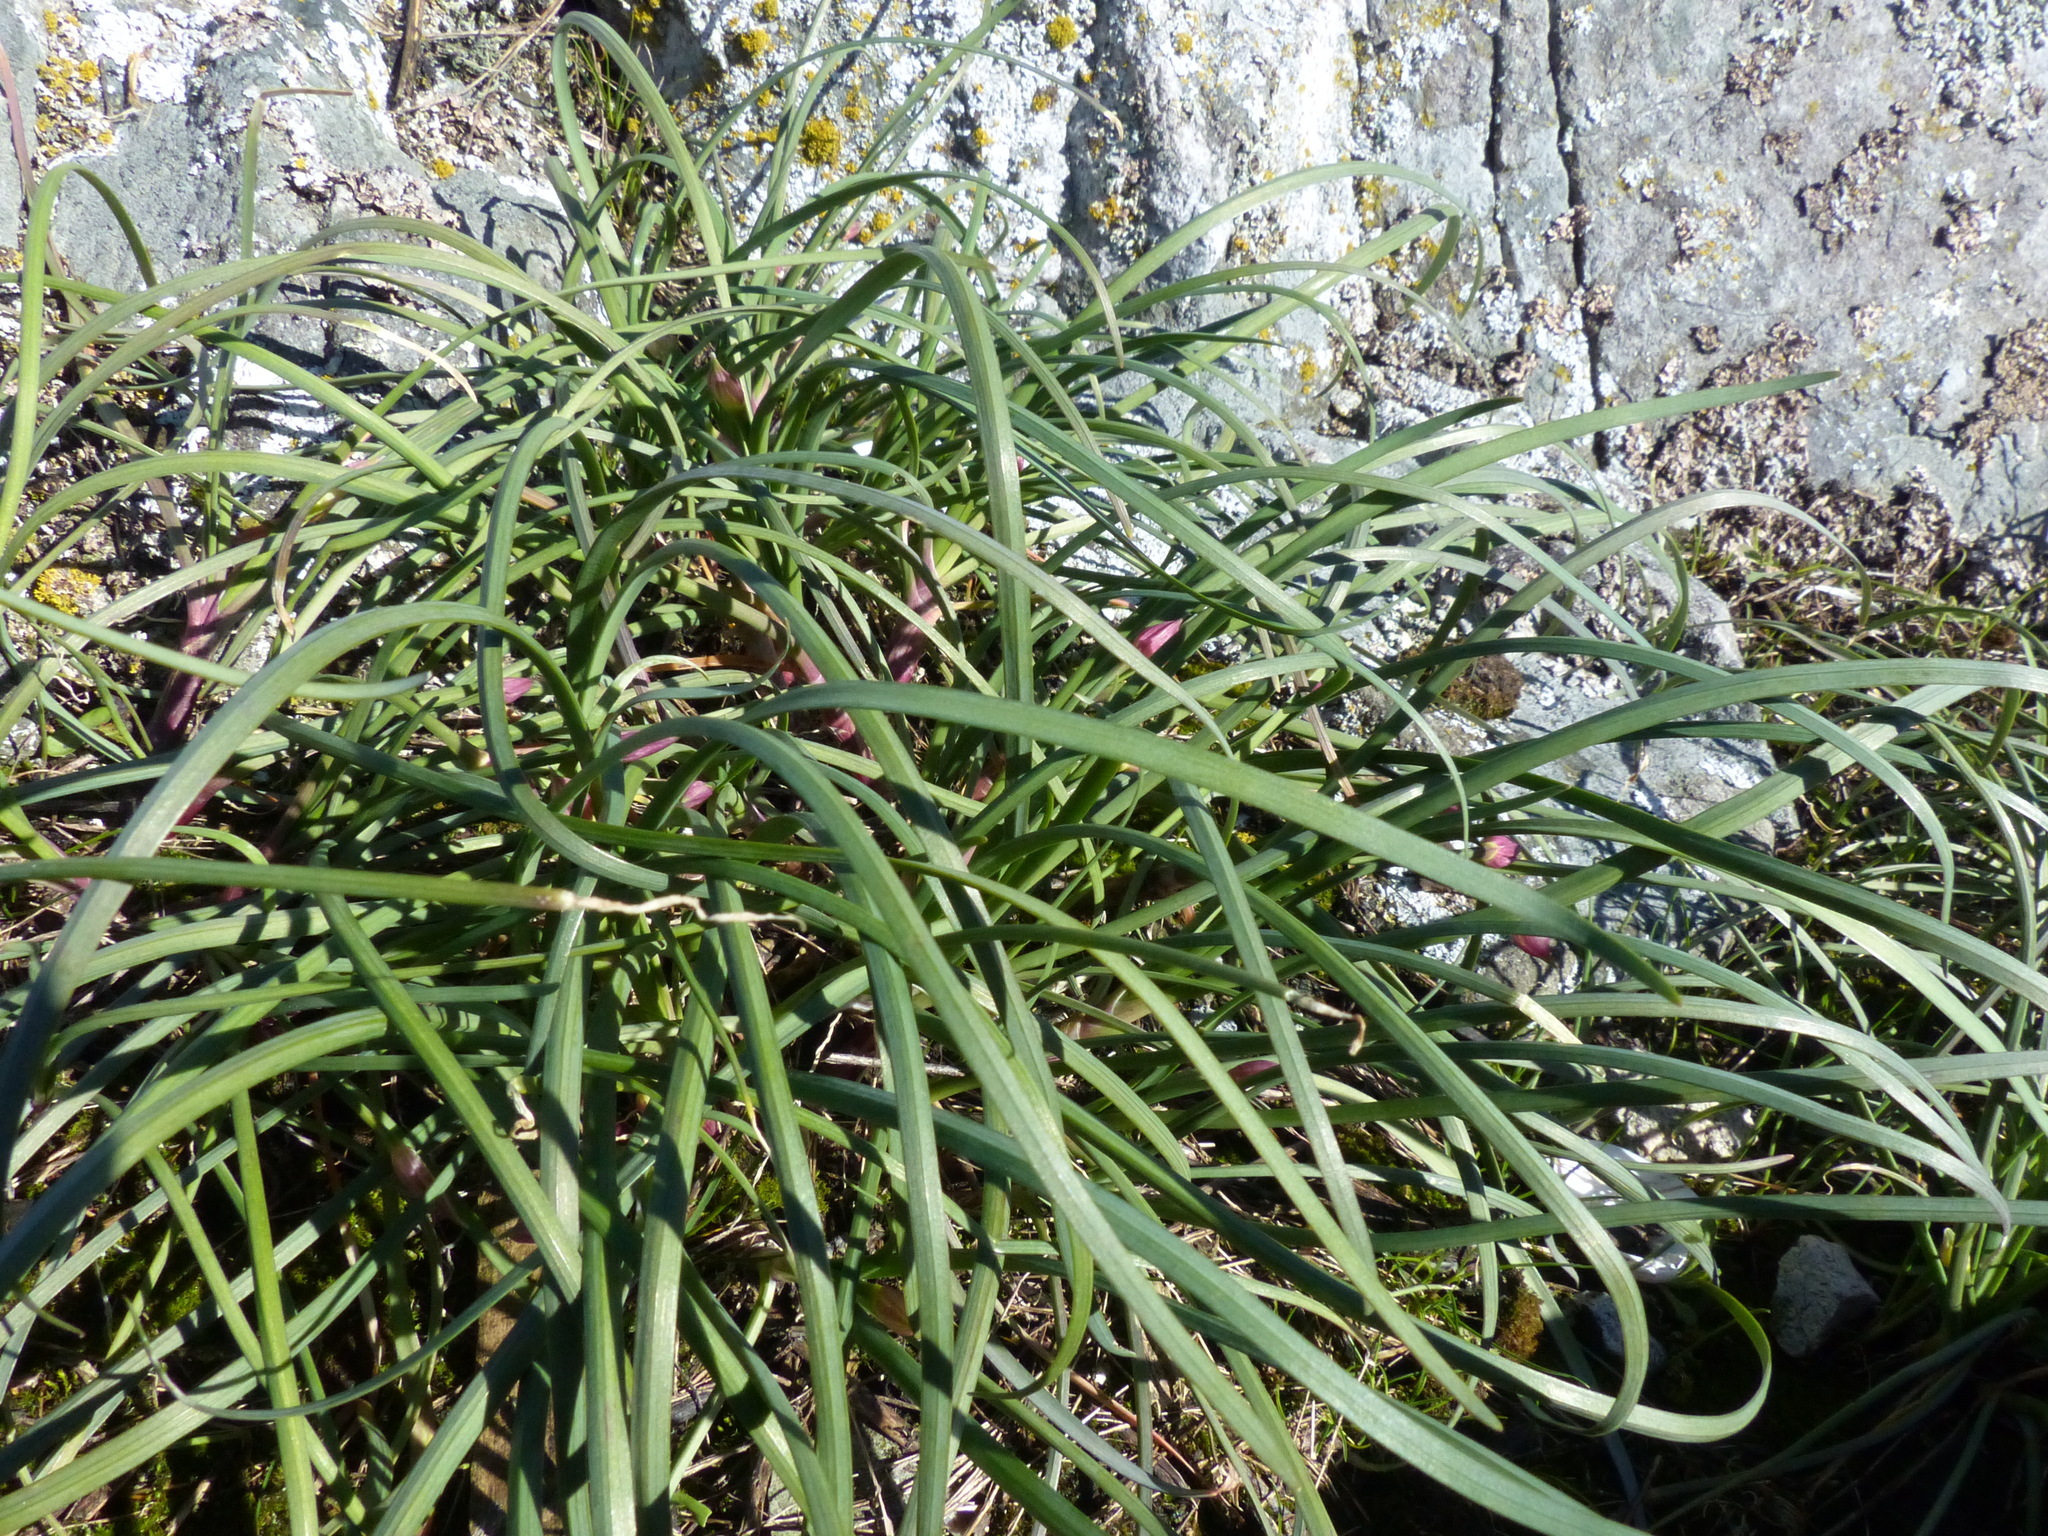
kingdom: Plantae
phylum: Tracheophyta
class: Liliopsida
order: Asparagales
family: Amaryllidaceae
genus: Allium
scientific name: Allium cernuum
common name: Nodding onion
